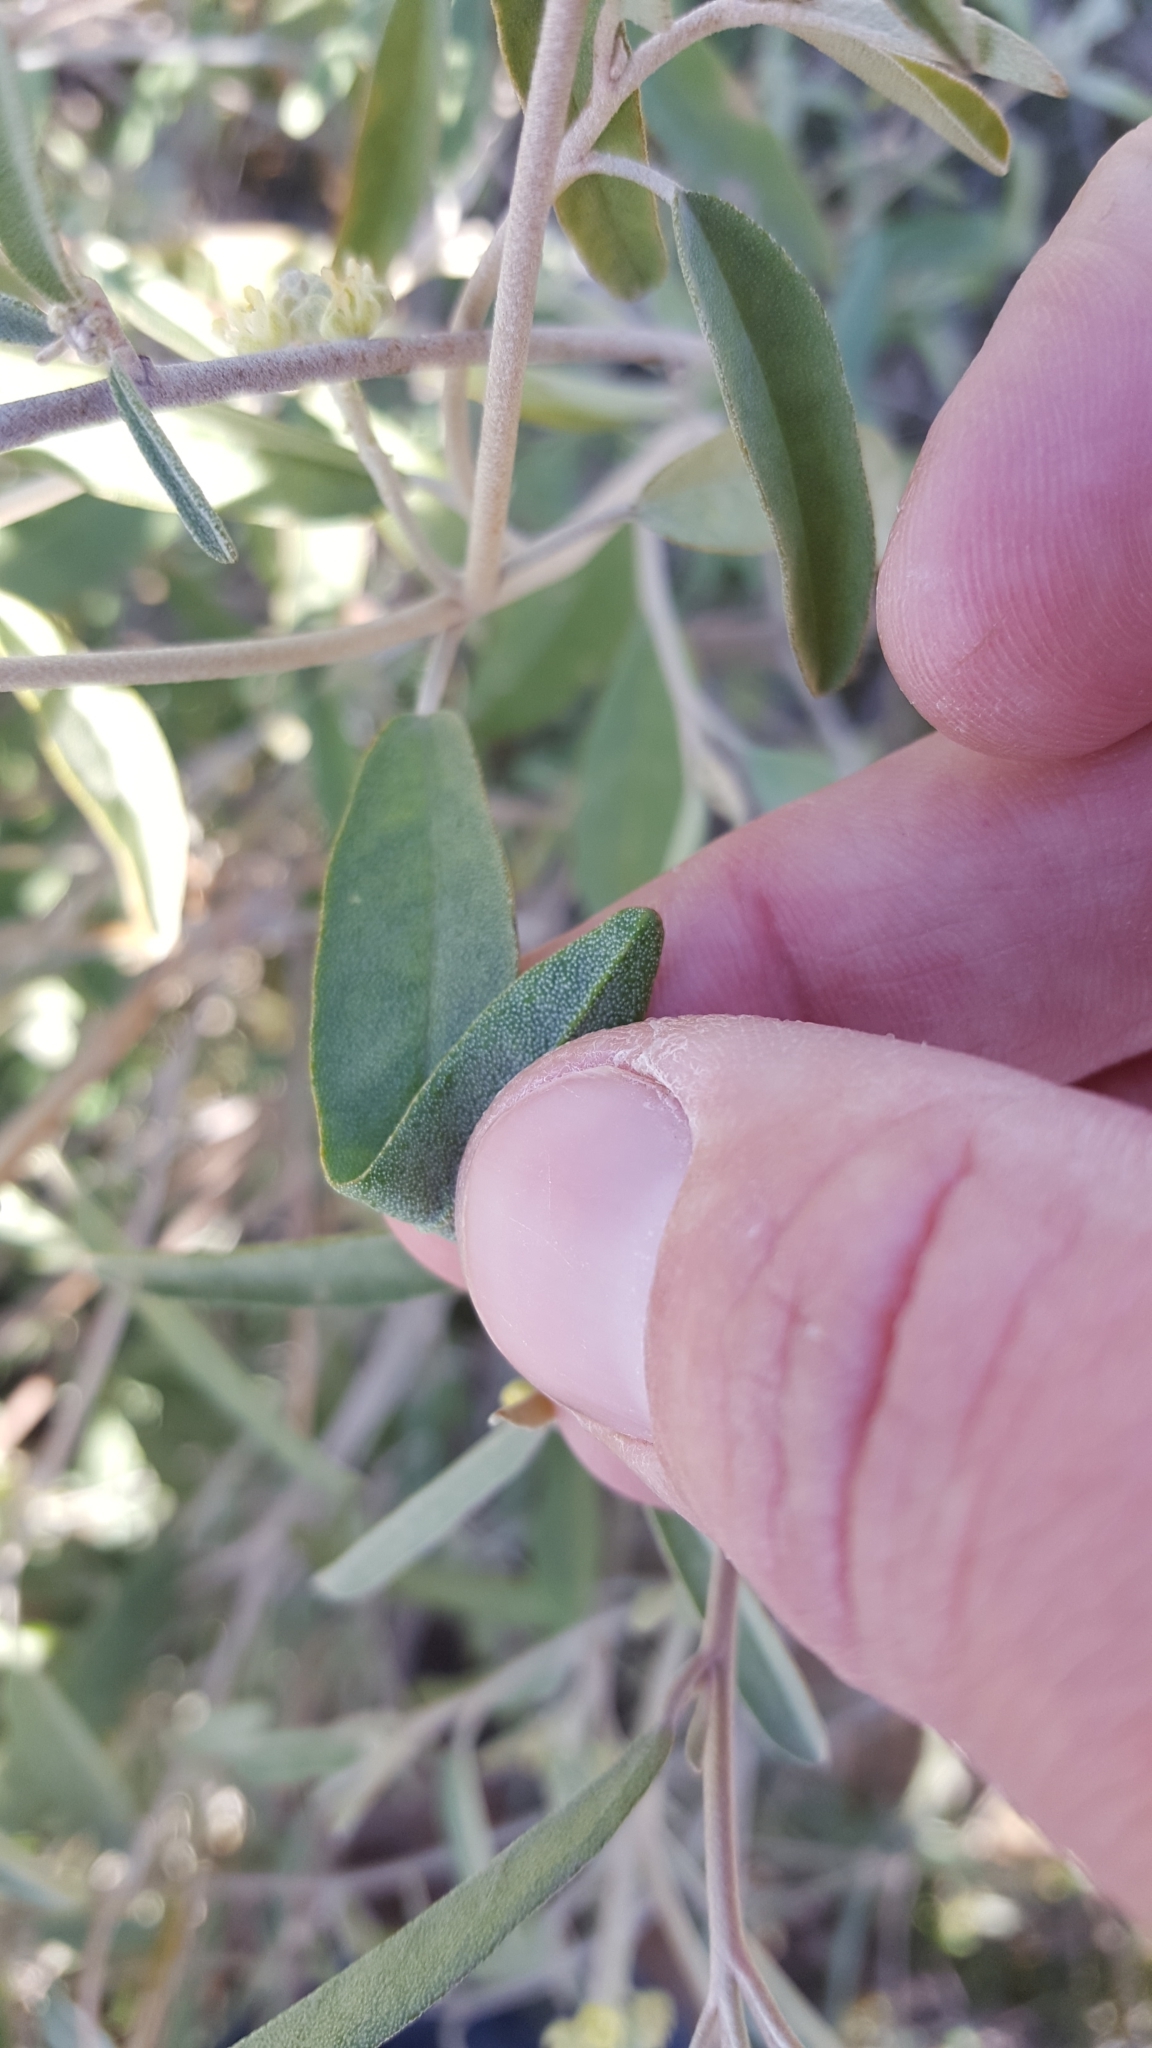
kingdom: Plantae
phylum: Tracheophyta
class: Magnoliopsida
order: Malpighiales
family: Euphorbiaceae
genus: Croton
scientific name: Croton californicus
